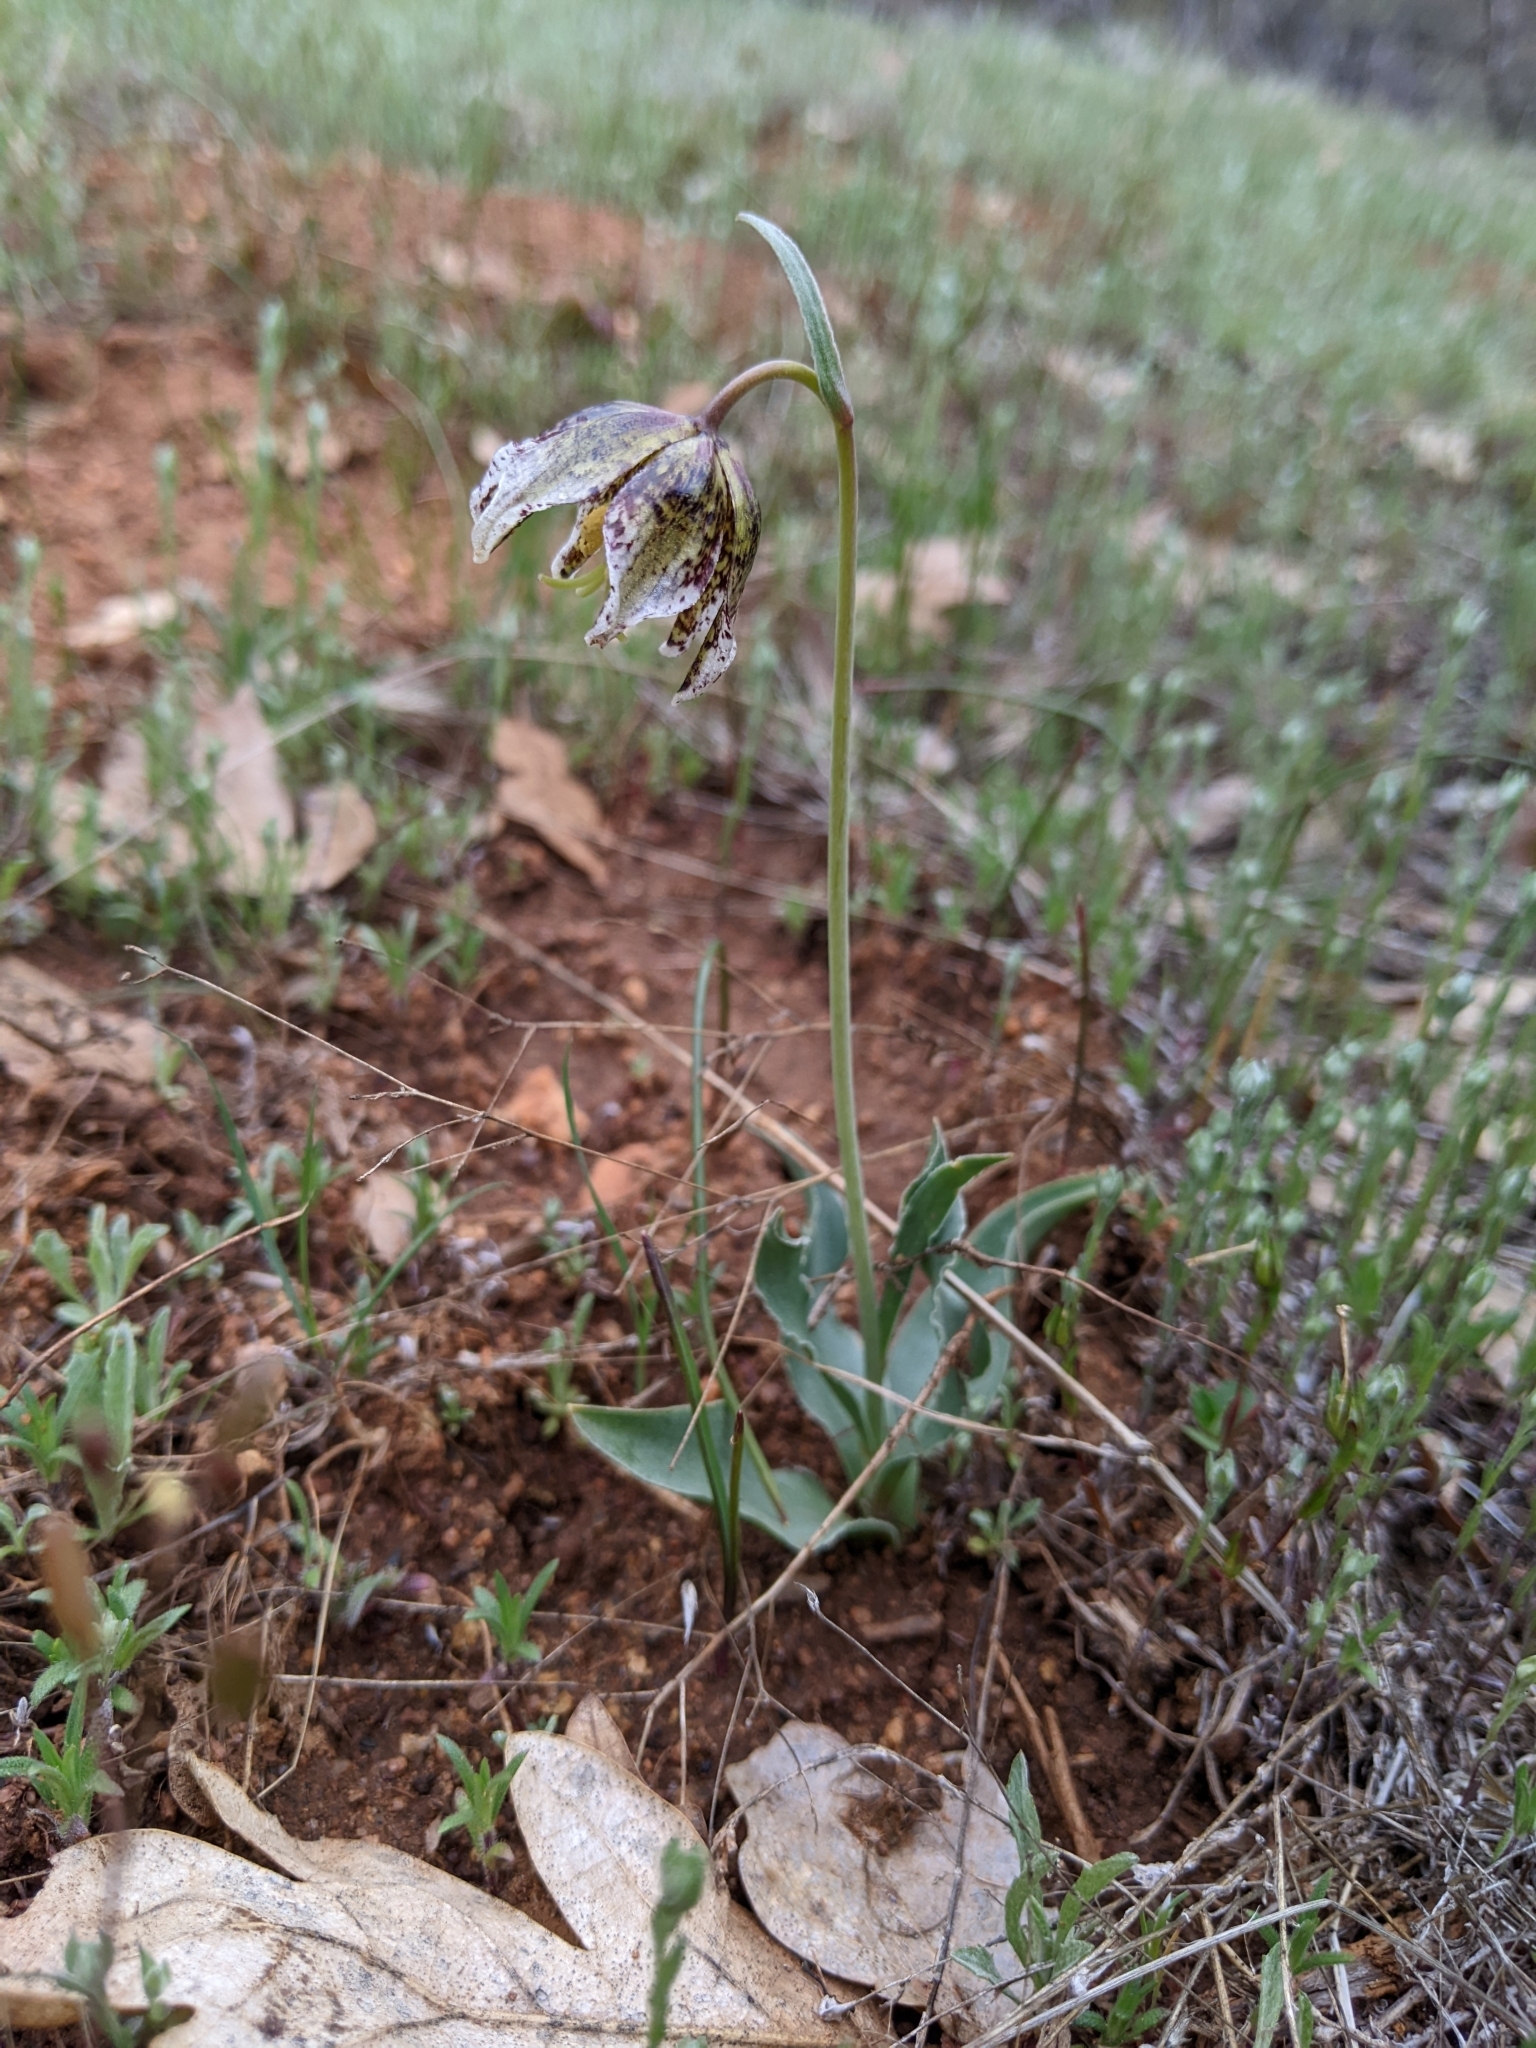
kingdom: Plantae
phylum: Tracheophyta
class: Liliopsida
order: Liliales
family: Liliaceae
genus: Fritillaria
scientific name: Fritillaria purdyi
